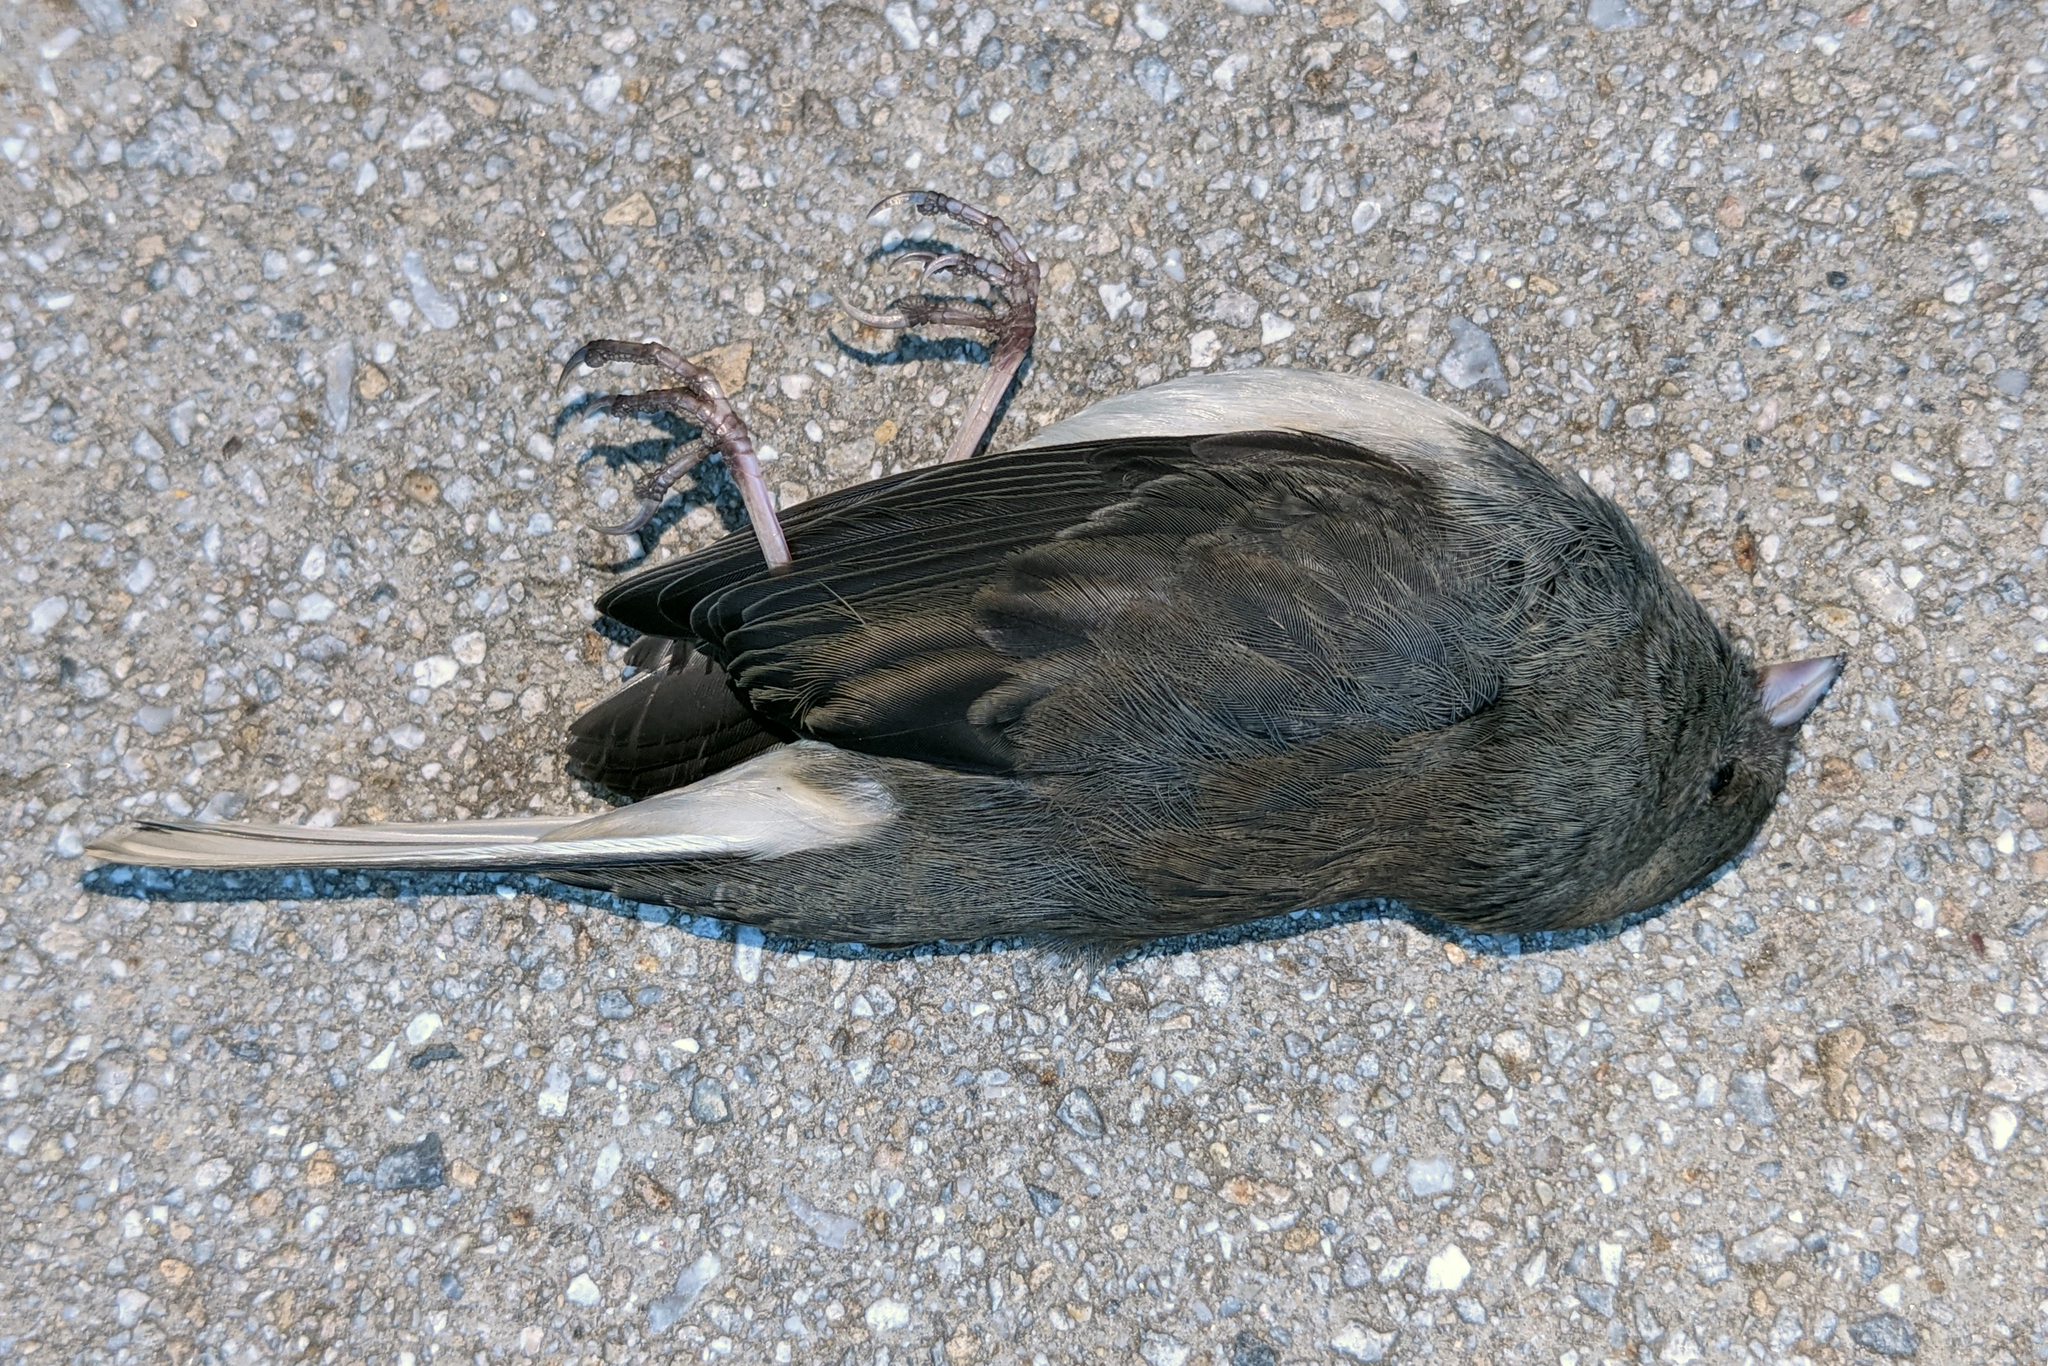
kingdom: Animalia
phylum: Chordata
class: Aves
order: Passeriformes
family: Passerellidae
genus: Junco
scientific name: Junco hyemalis
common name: Dark-eyed junco
